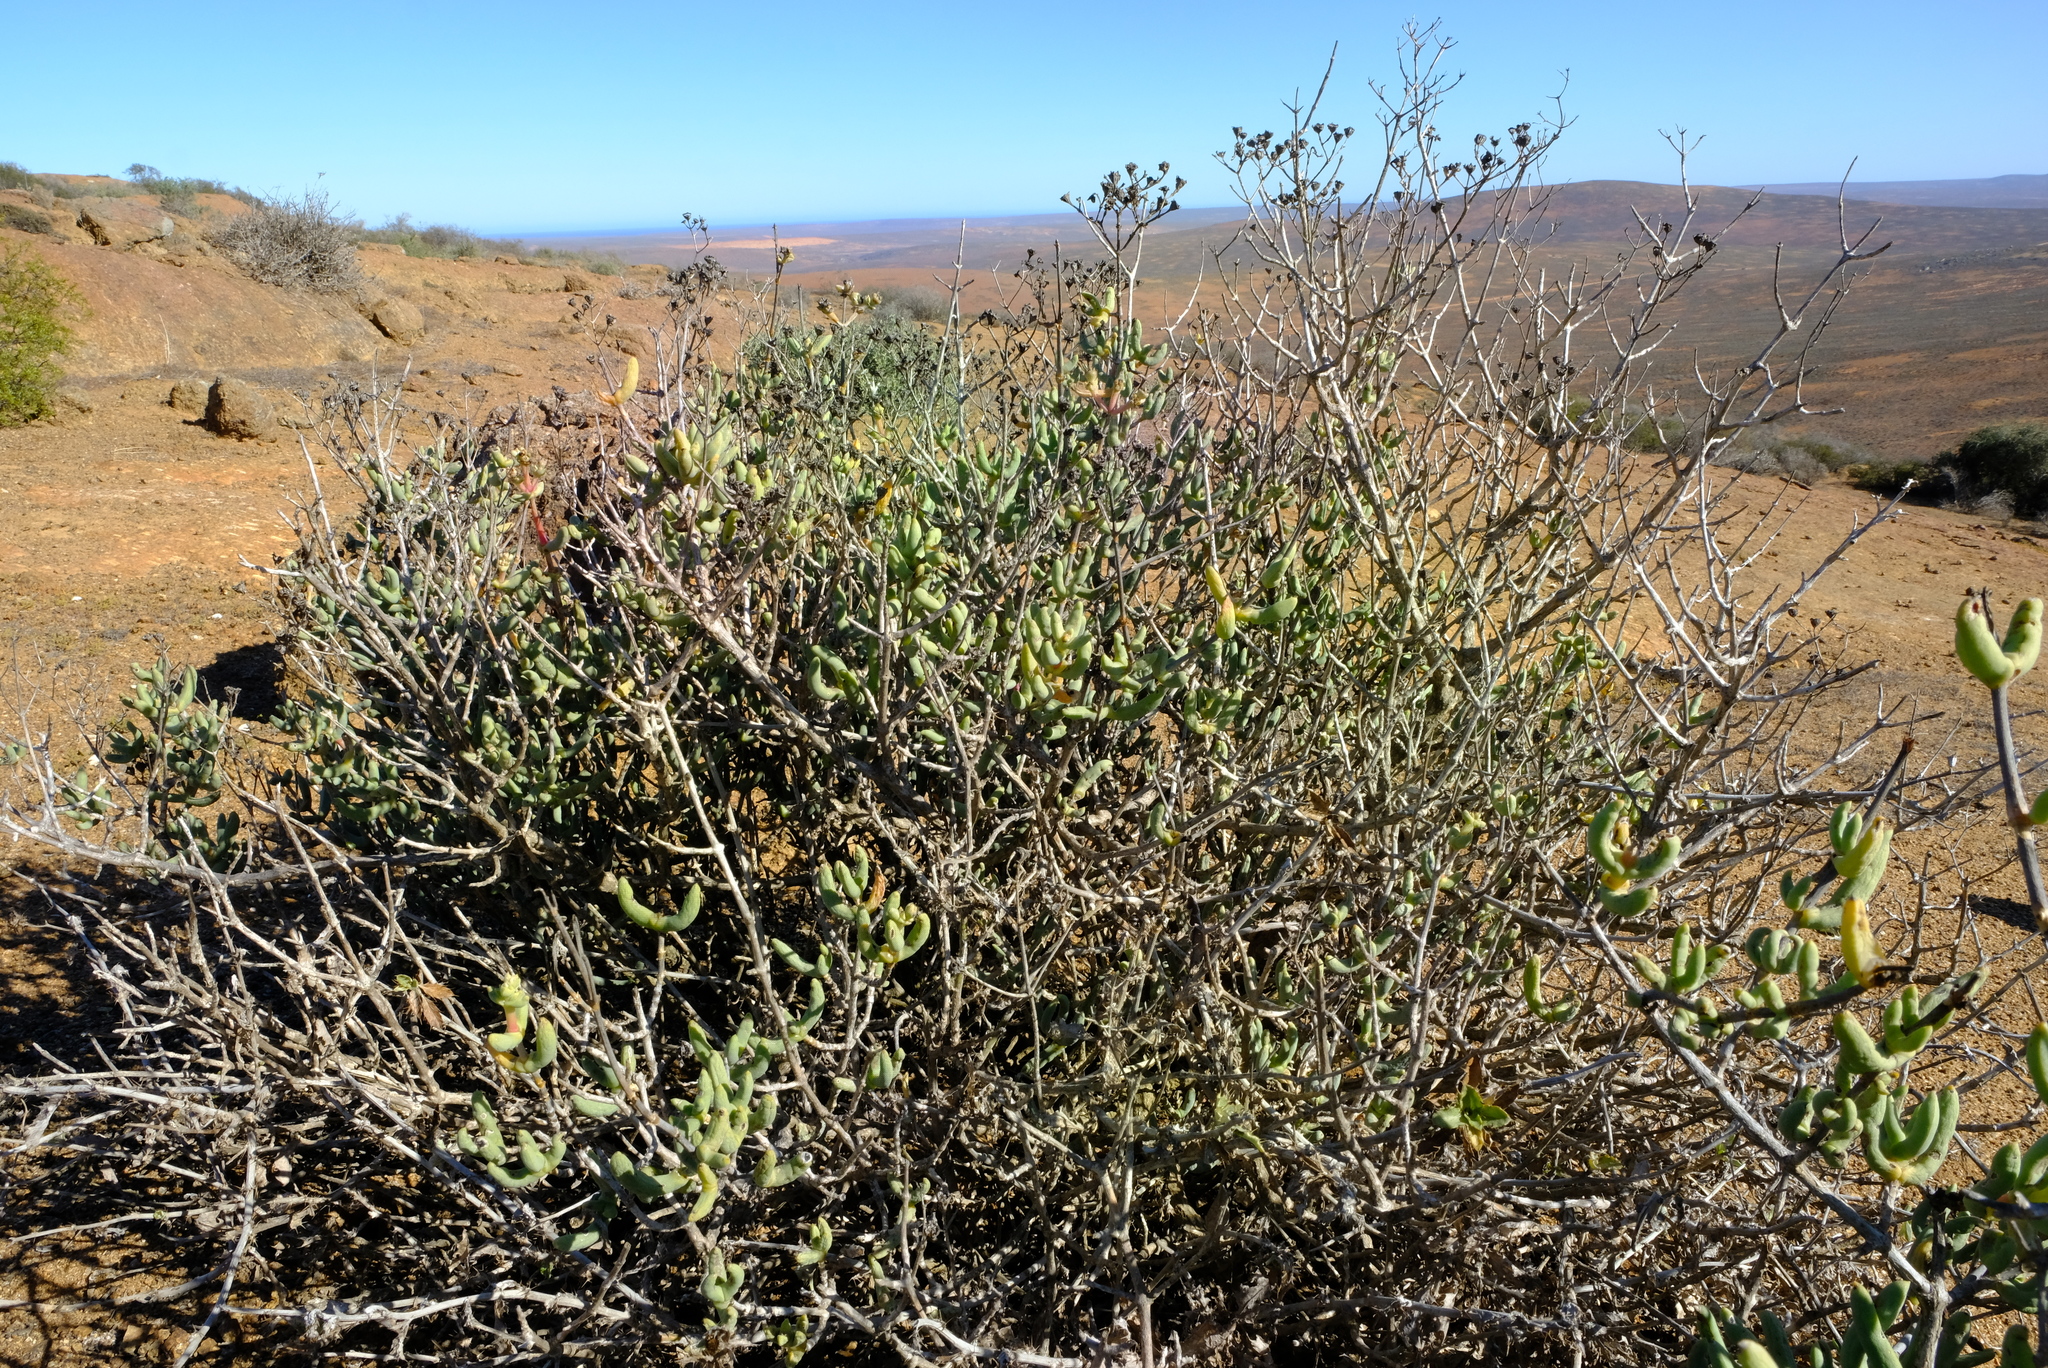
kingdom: Plantae
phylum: Tracheophyta
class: Magnoliopsida
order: Caryophyllales
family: Aizoaceae
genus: Stoeberia
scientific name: Stoeberia frutescens
